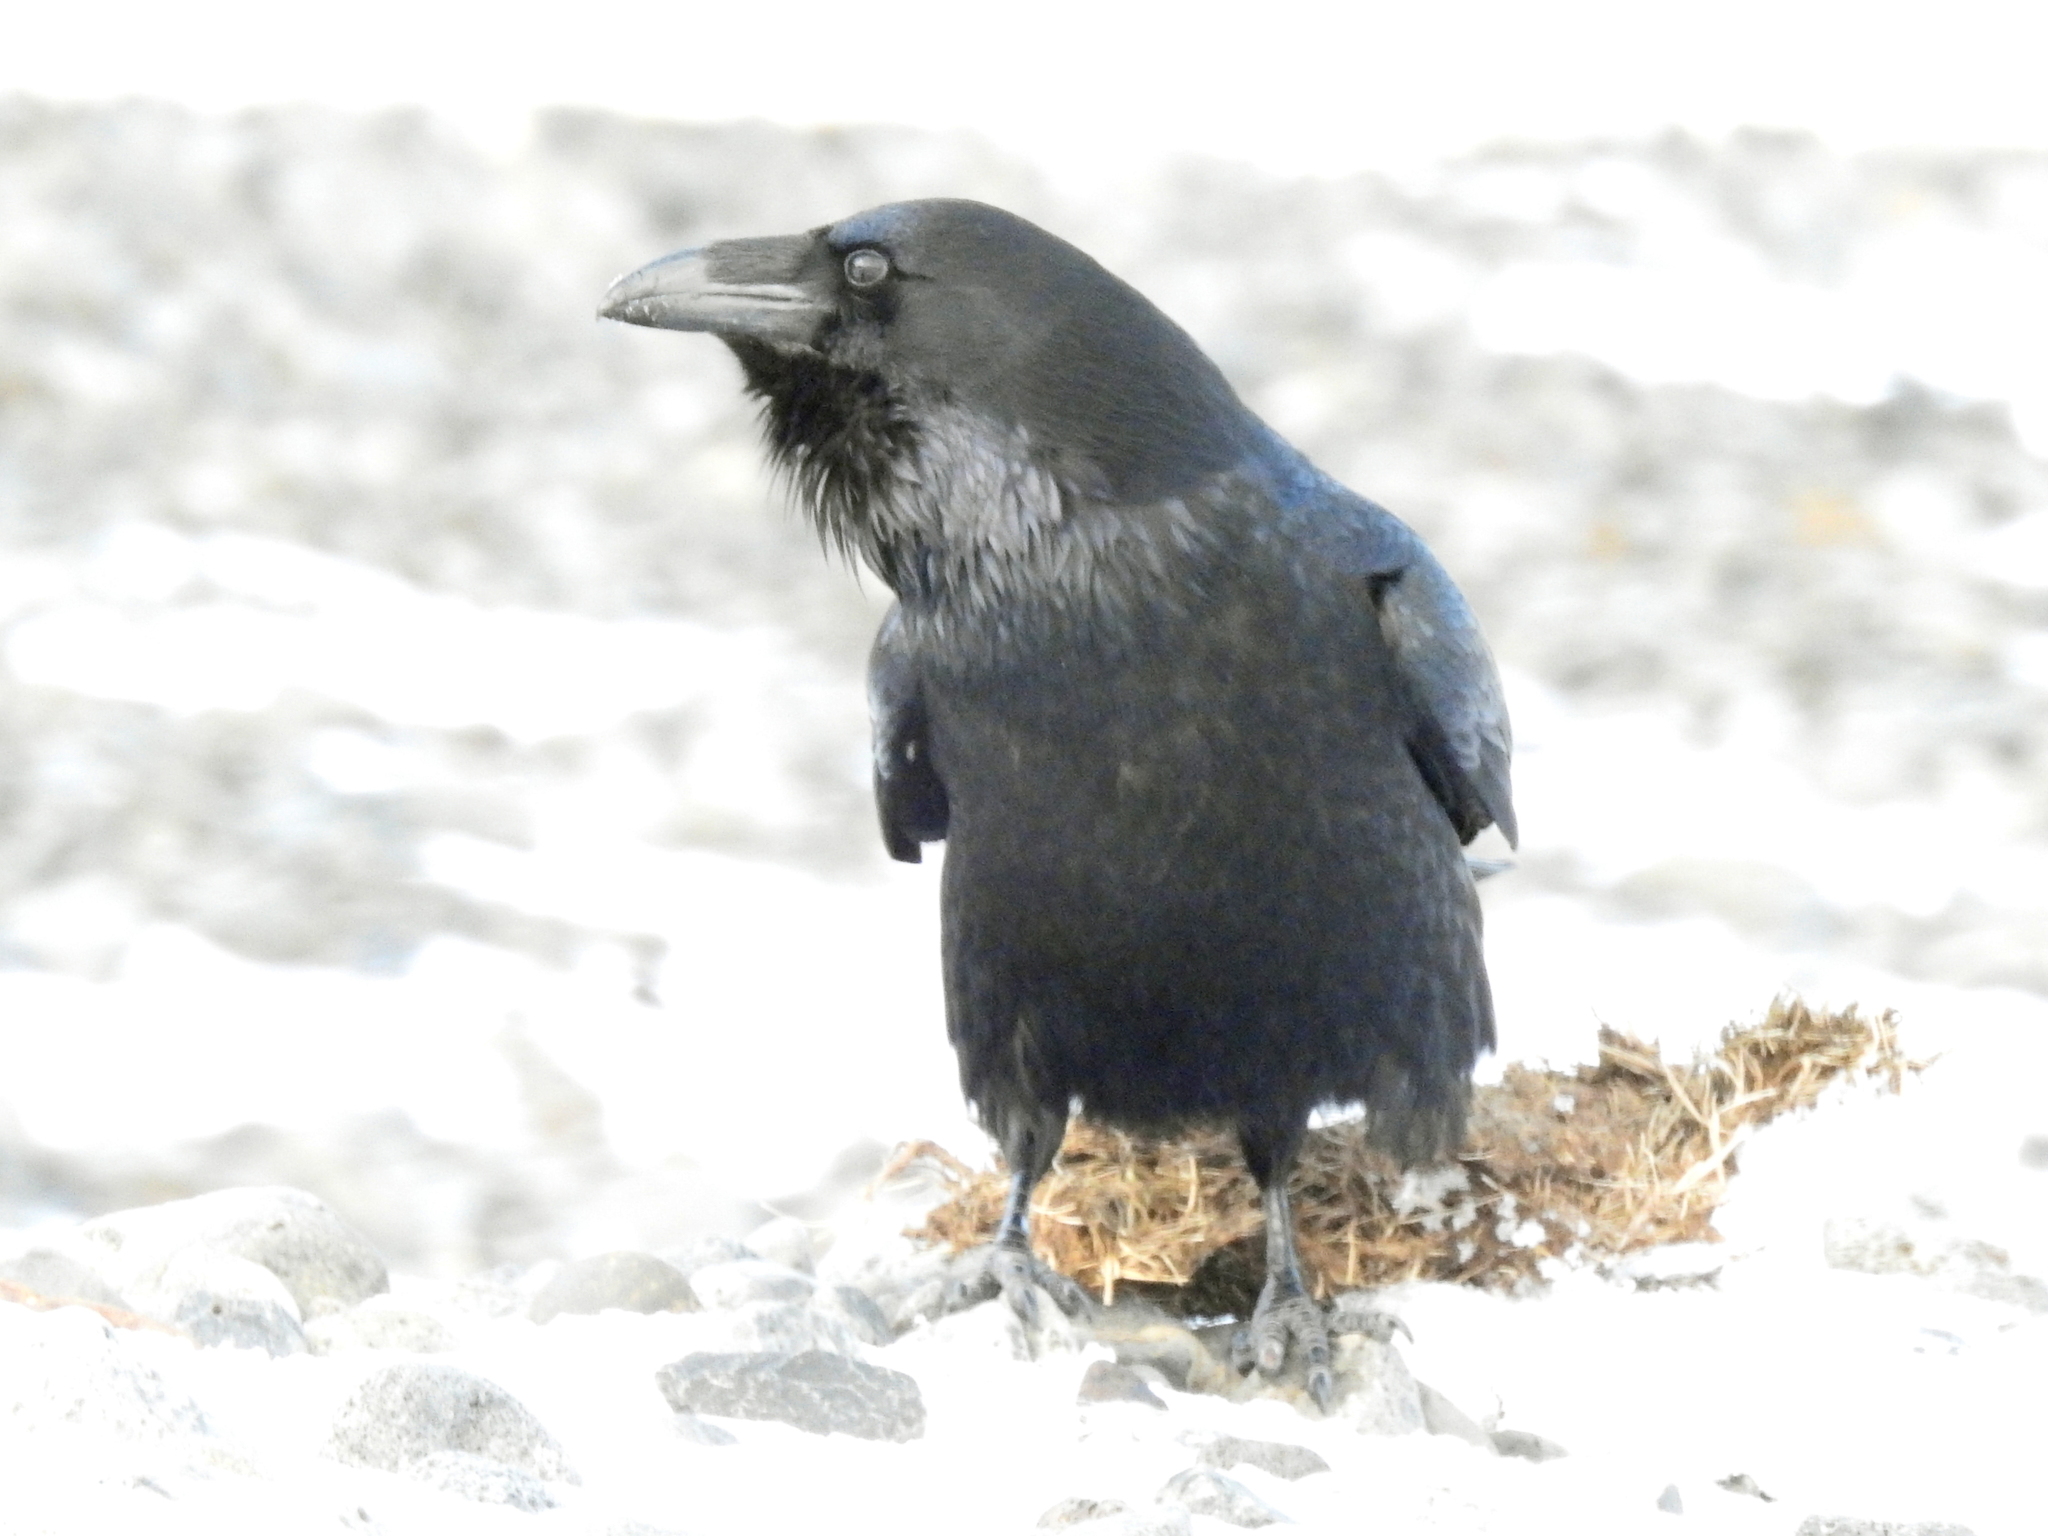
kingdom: Animalia
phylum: Chordata
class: Aves
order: Passeriformes
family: Corvidae
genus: Corvus
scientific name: Corvus corax
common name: Common raven
